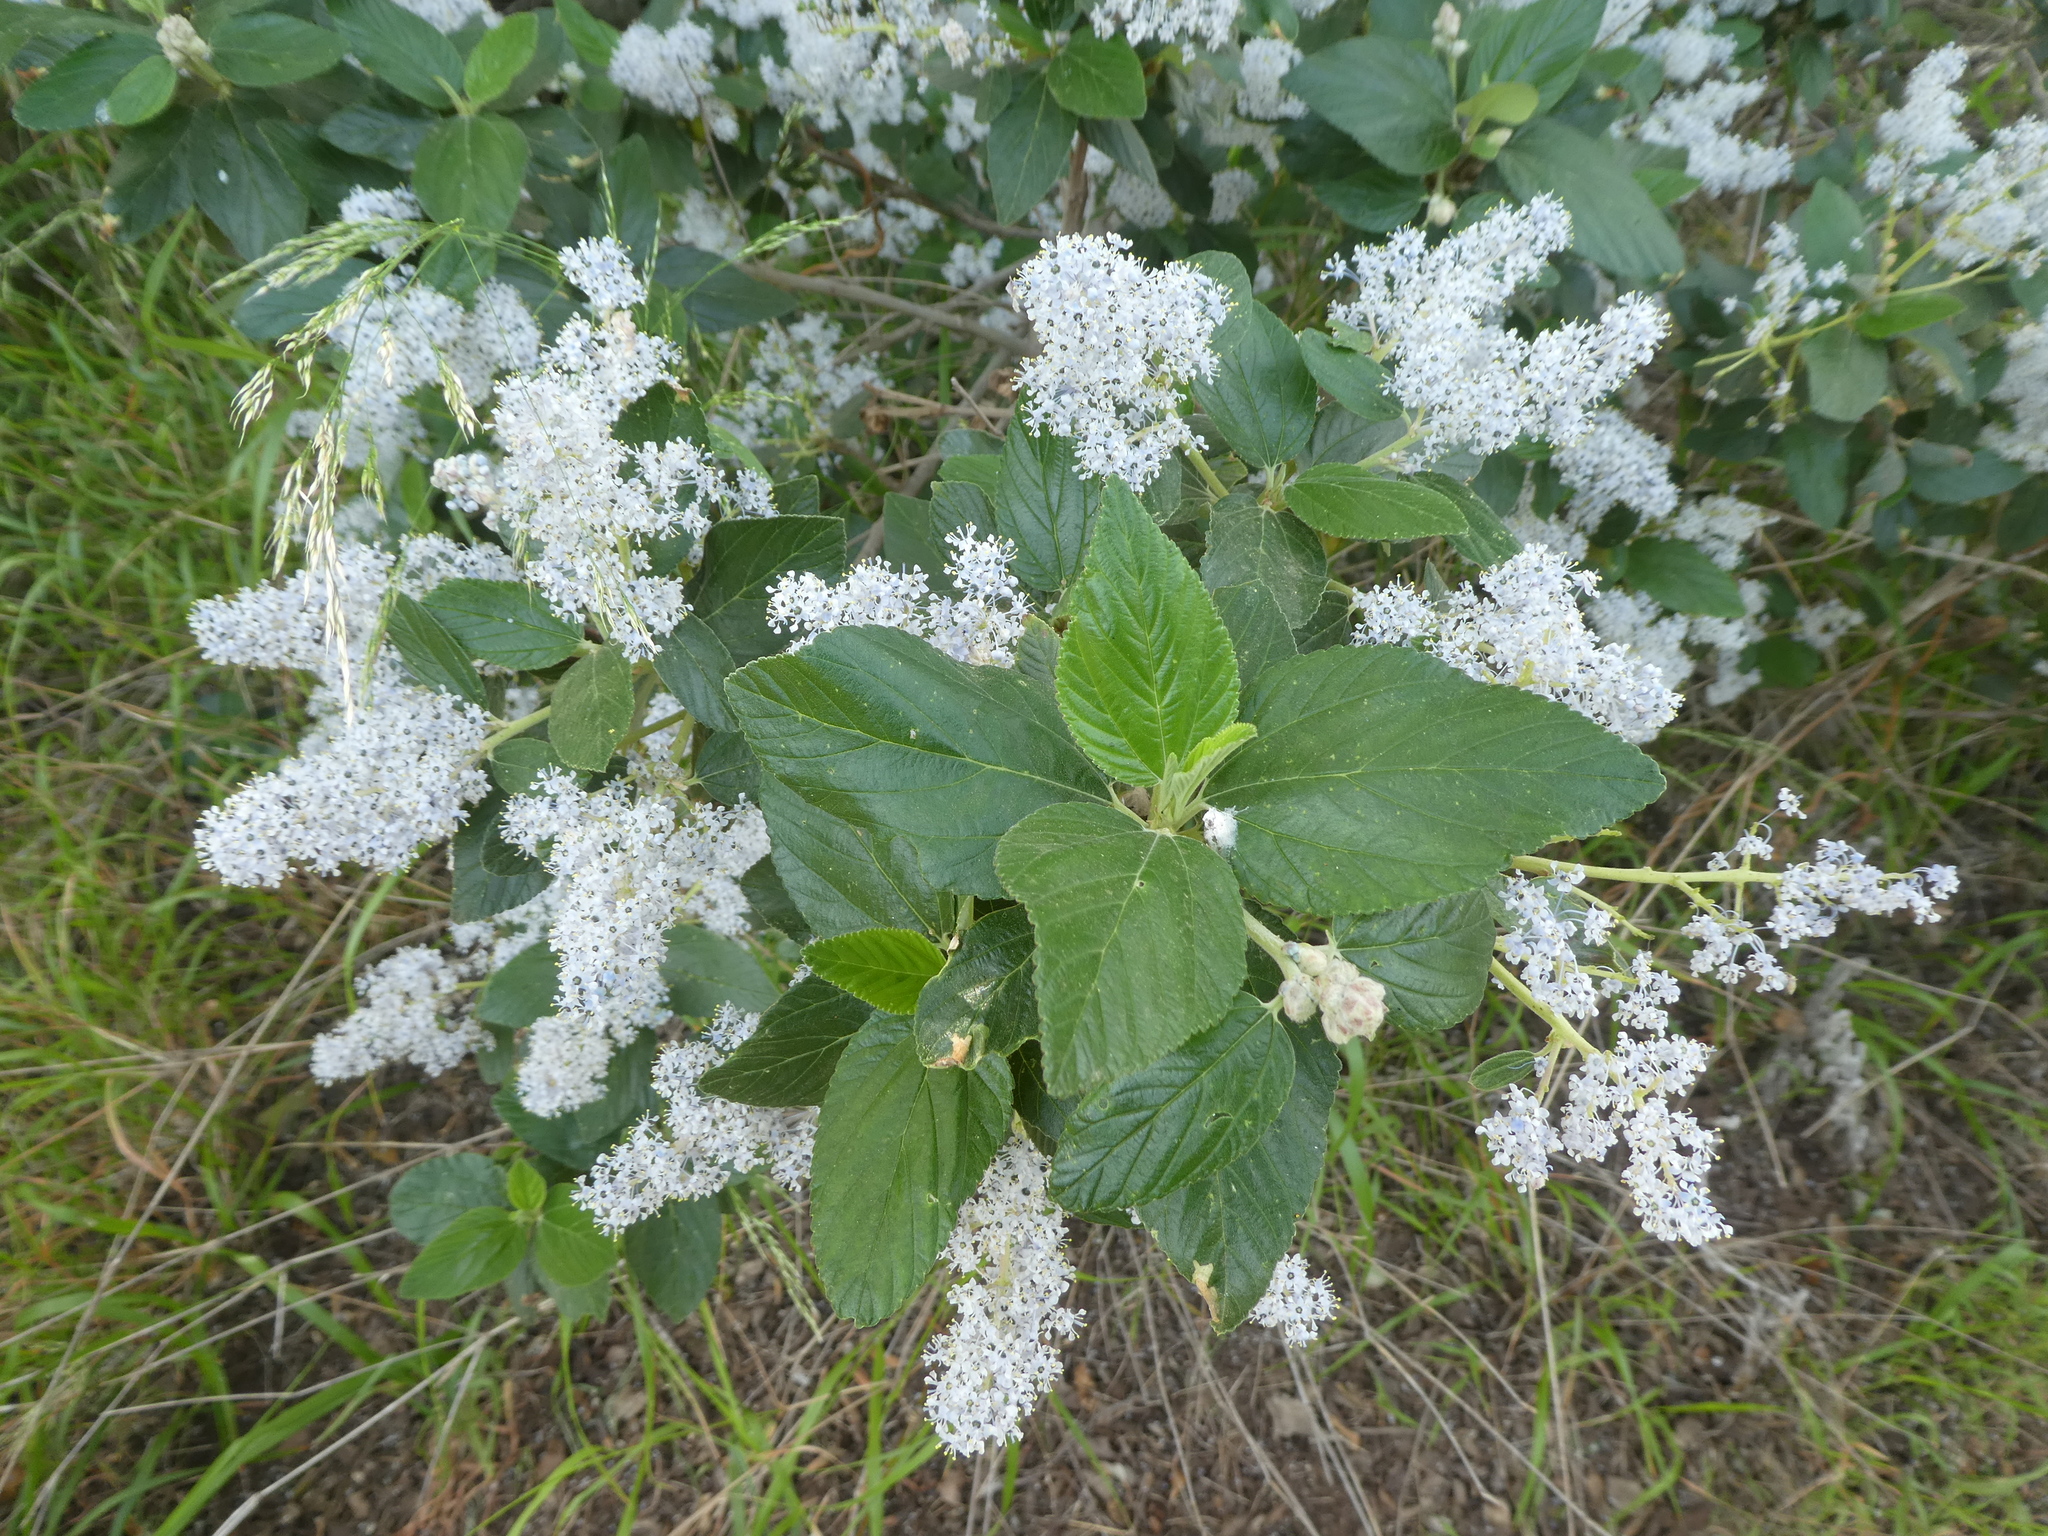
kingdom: Plantae
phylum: Tracheophyta
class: Magnoliopsida
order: Rosales
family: Rhamnaceae
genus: Ceanothus
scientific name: Ceanothus arboreus
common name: Catalina mountain-lilac
